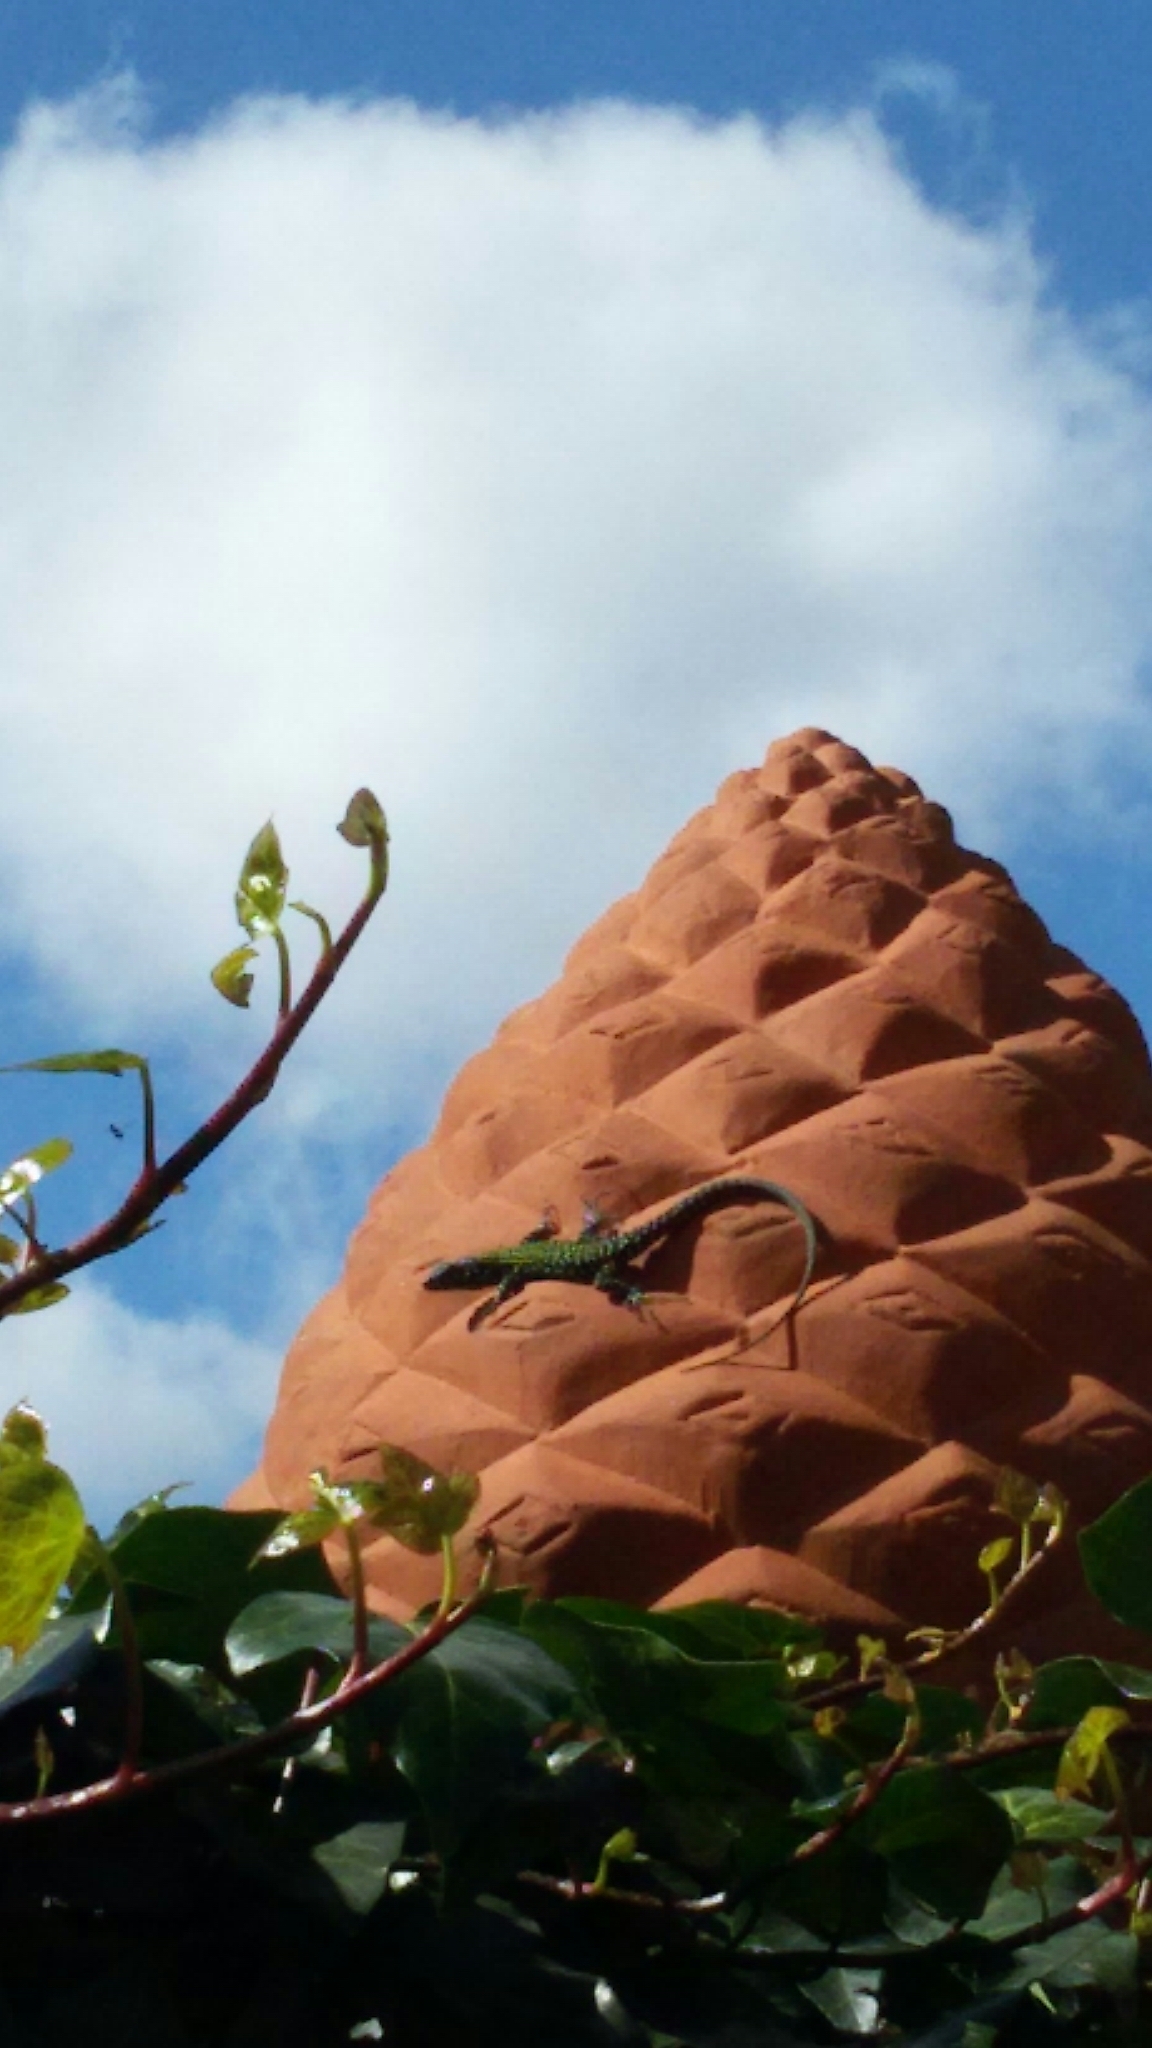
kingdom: Animalia
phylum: Chordata
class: Squamata
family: Lacertidae
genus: Podarcis
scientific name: Podarcis muralis
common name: Common wall lizard
